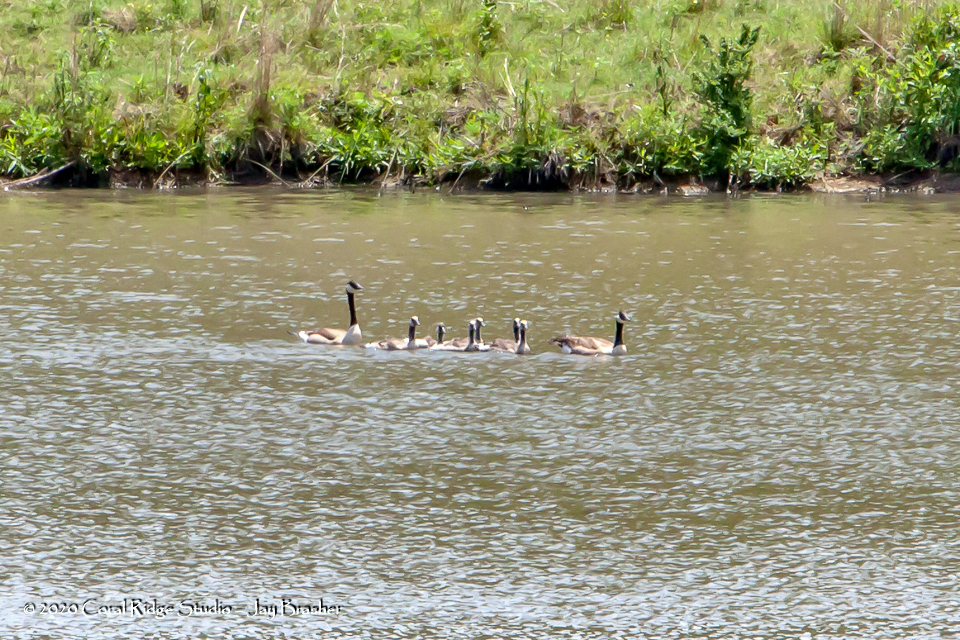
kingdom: Animalia
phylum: Chordata
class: Aves
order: Anseriformes
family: Anatidae
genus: Branta
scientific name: Branta canadensis
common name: Canada goose
